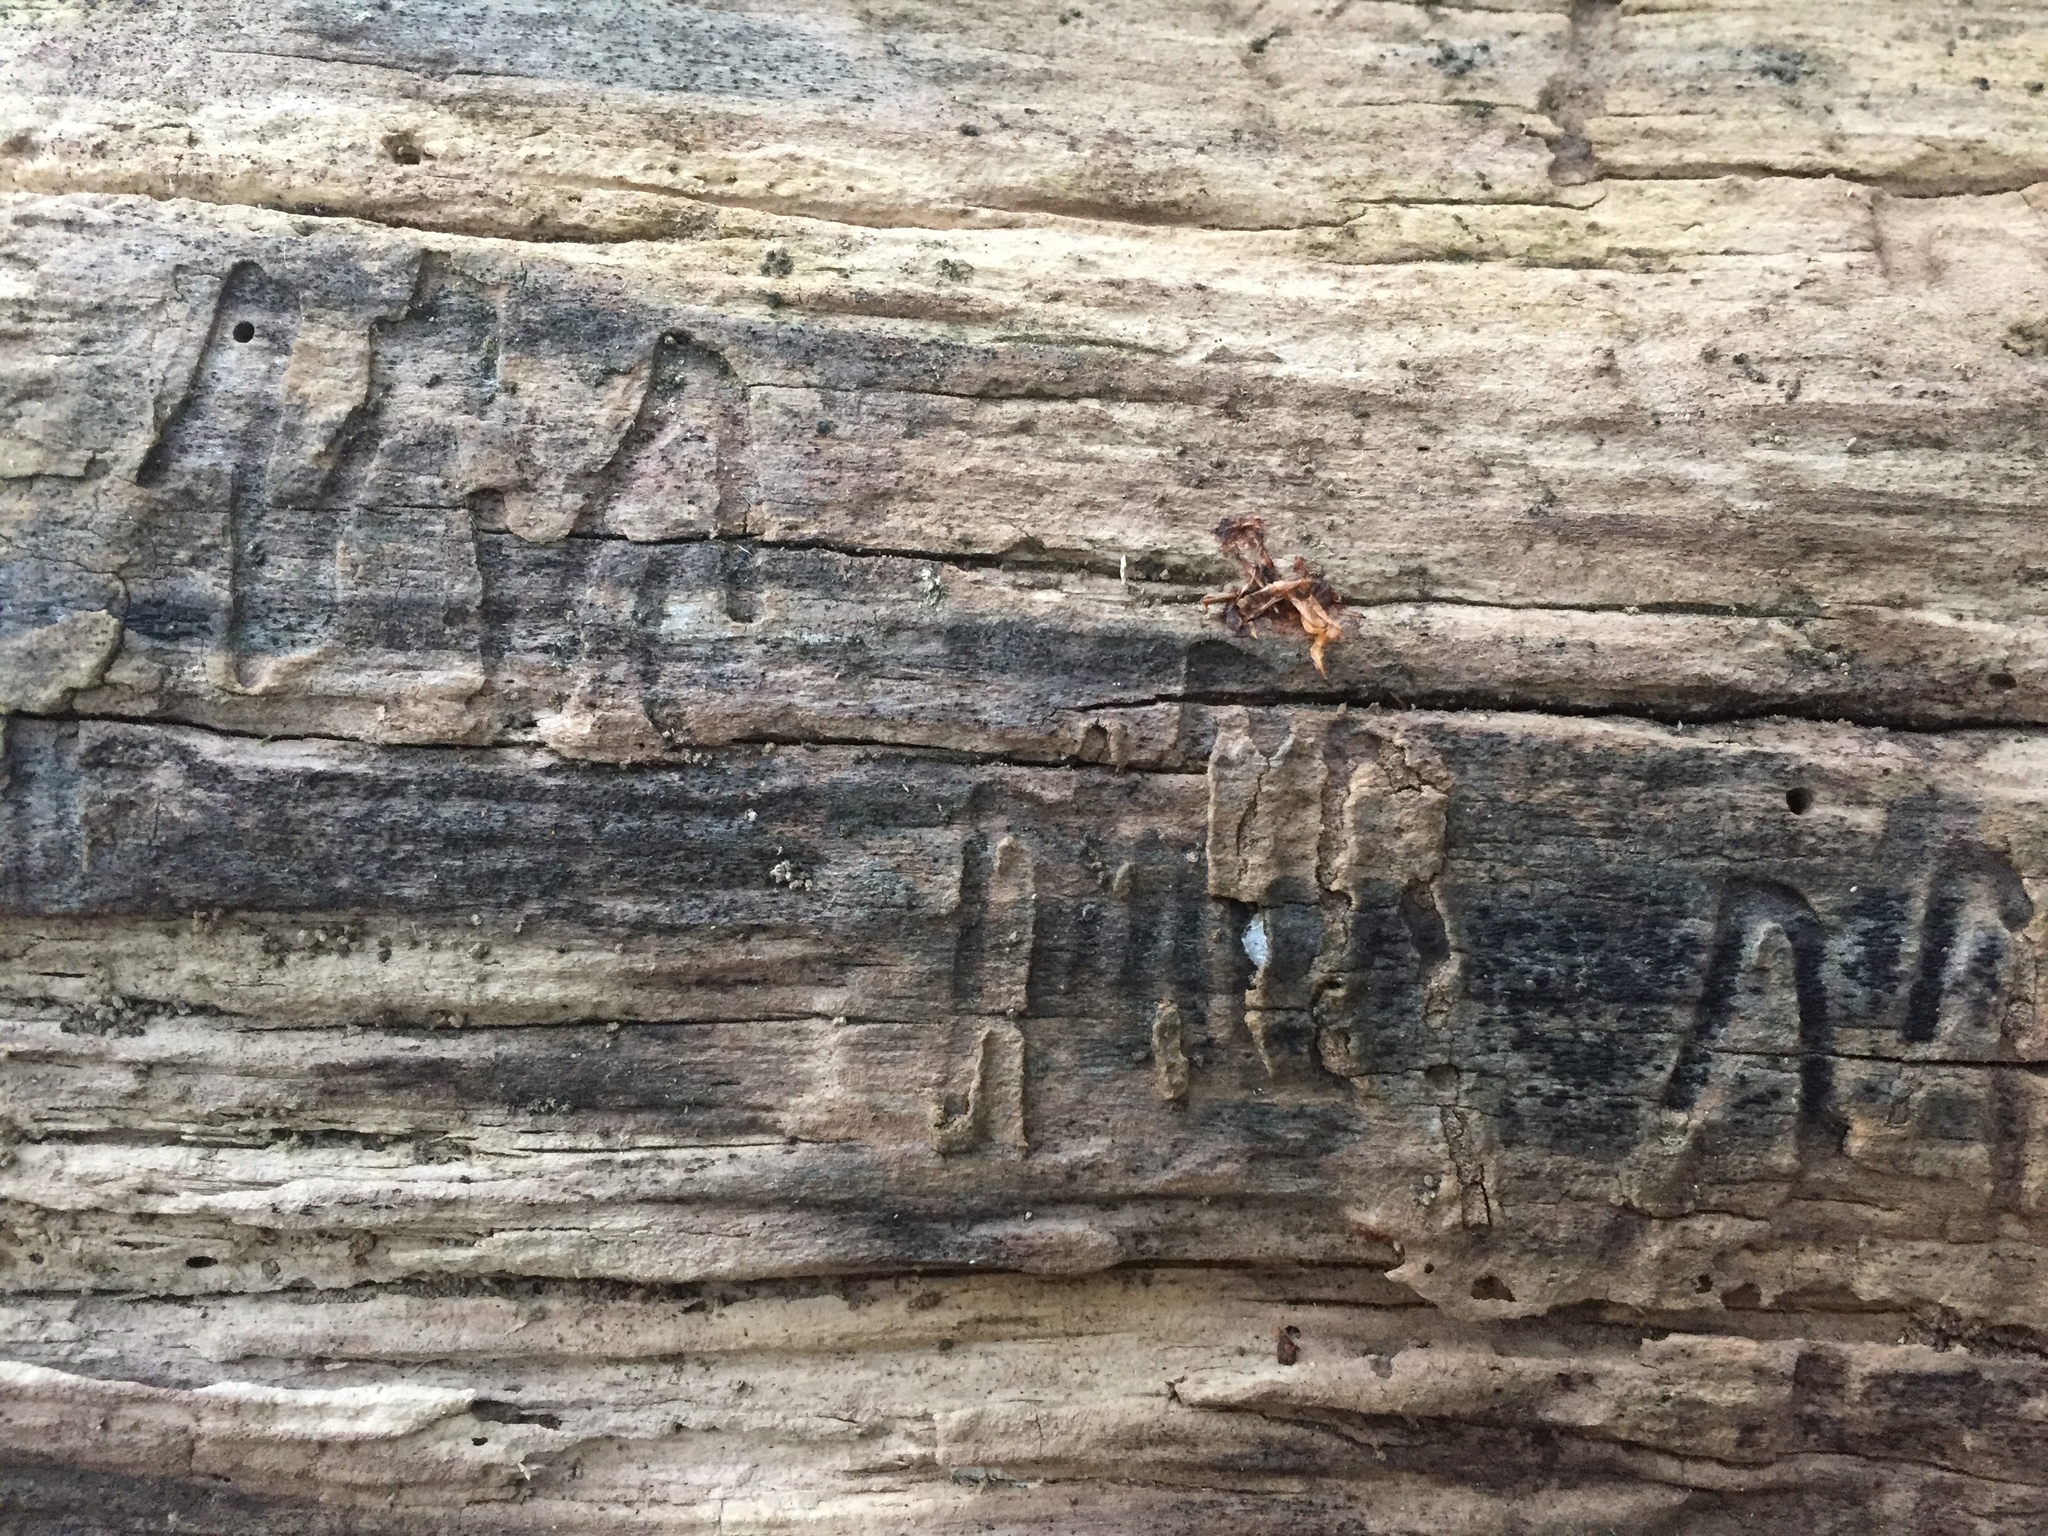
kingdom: Animalia
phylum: Arthropoda
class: Insecta
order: Coleoptera
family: Buprestidae
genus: Agrilus
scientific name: Agrilus planipennis
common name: Emerald ash borer
